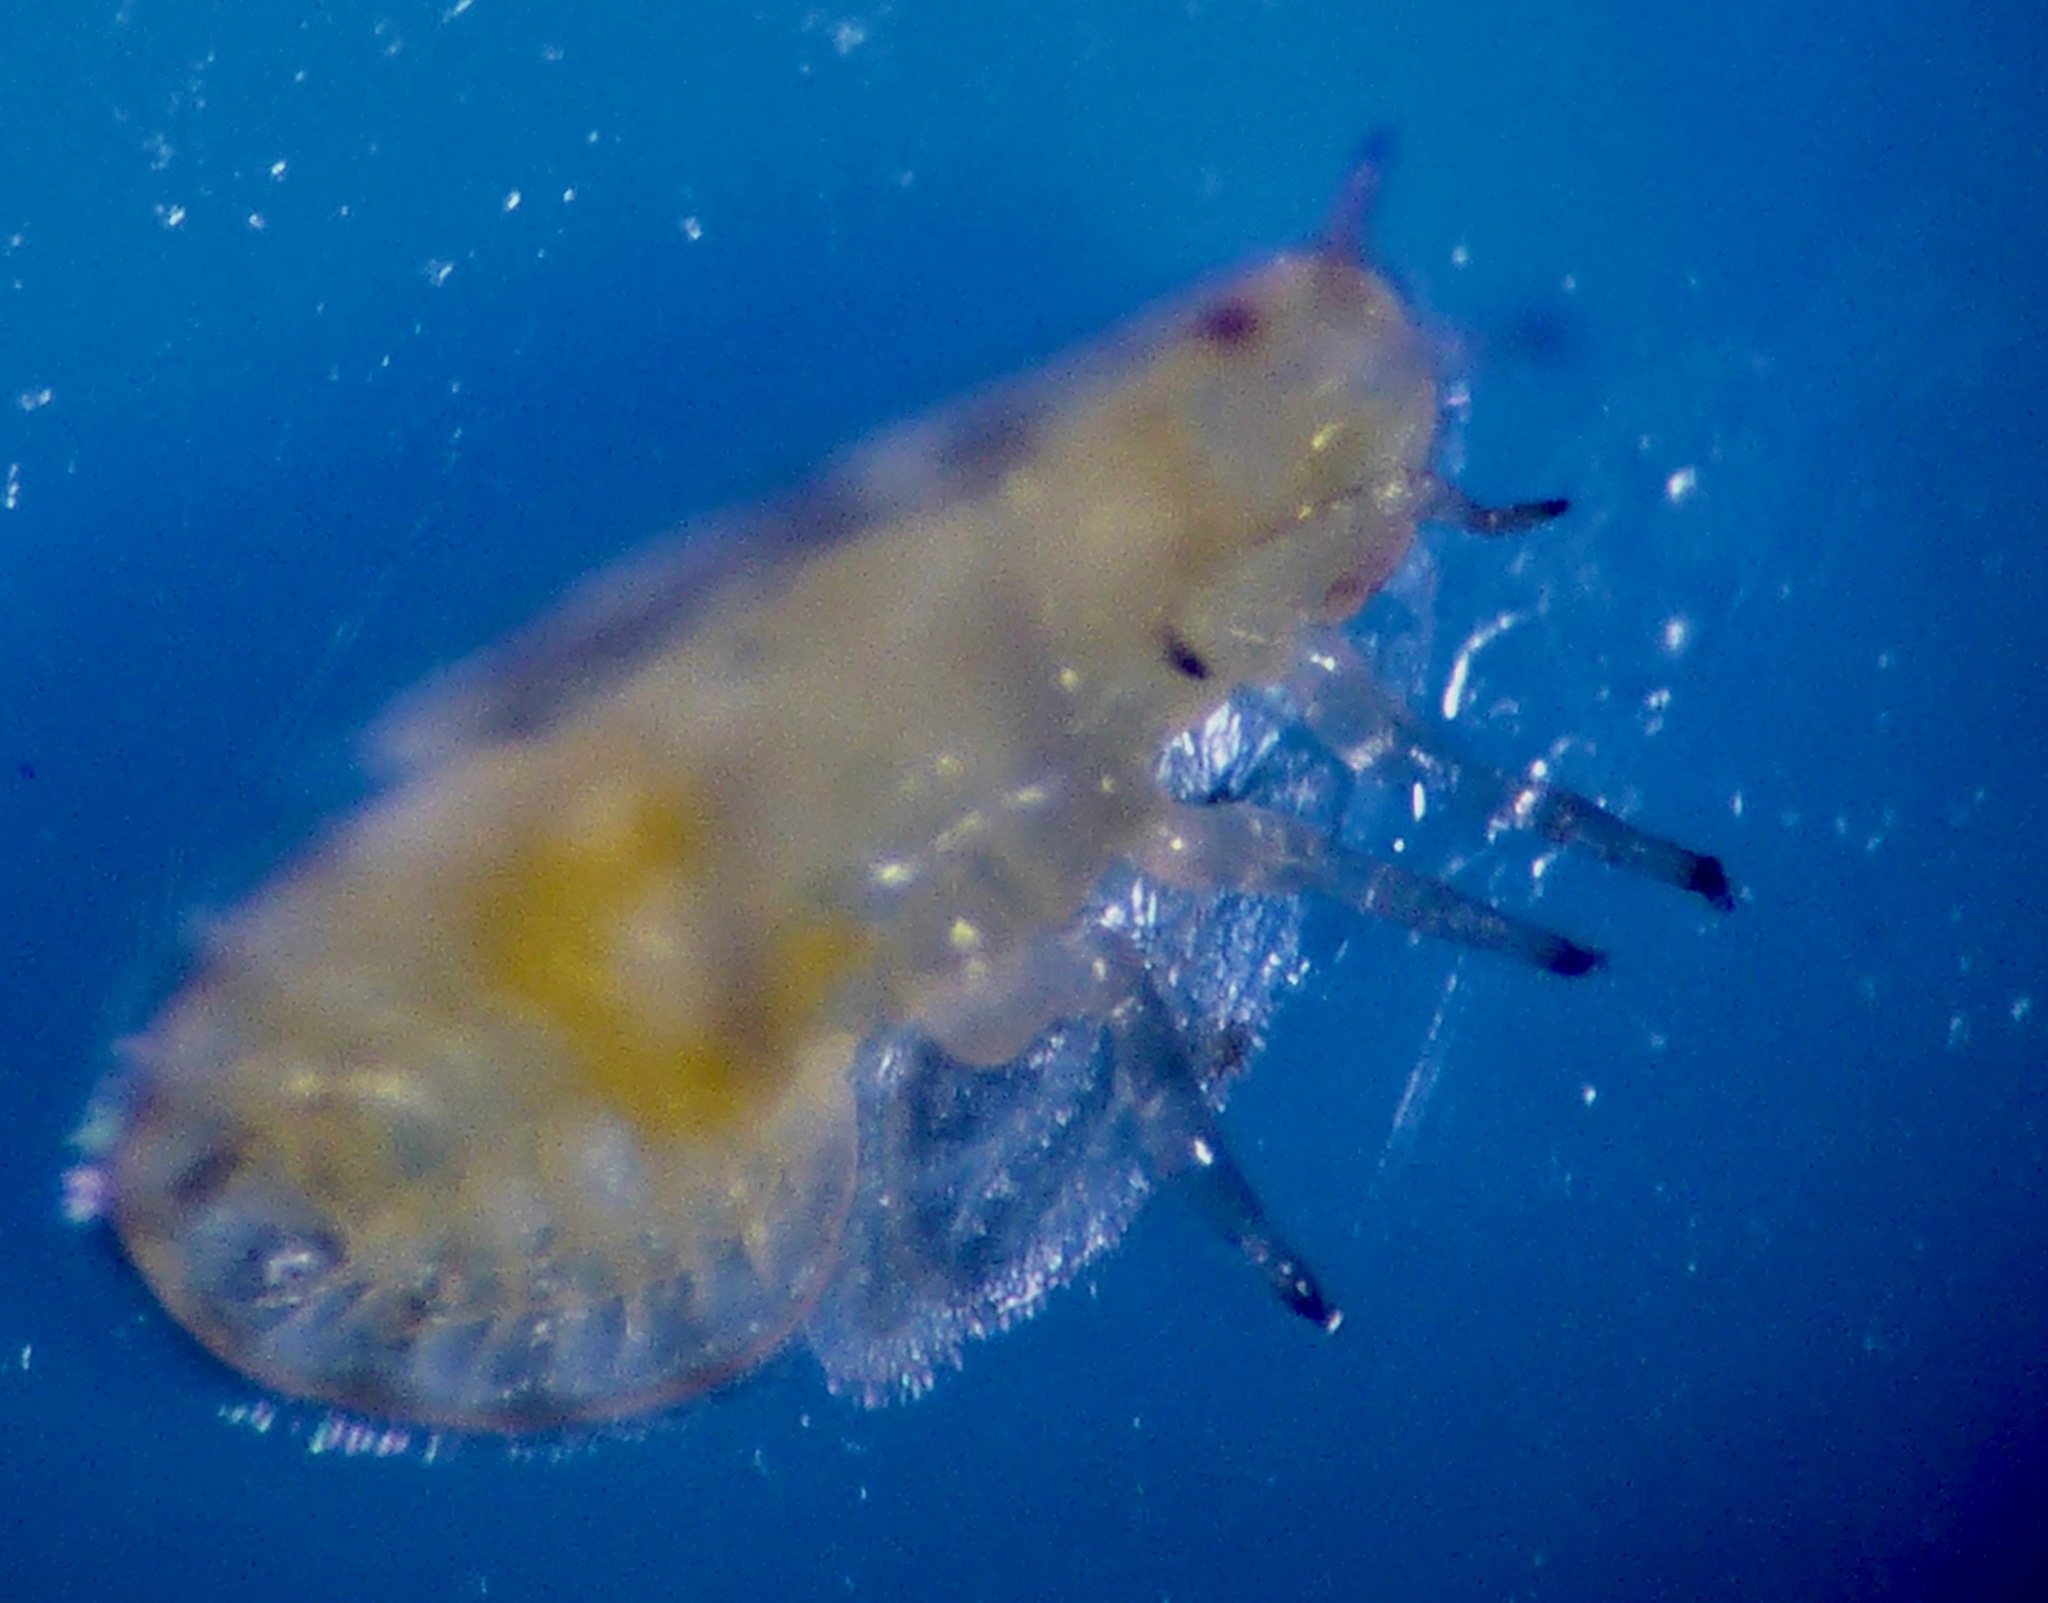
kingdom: Animalia
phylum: Arthropoda
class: Insecta
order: Hemiptera
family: Triozidae
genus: Bactericera
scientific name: Bactericera cockerelli
